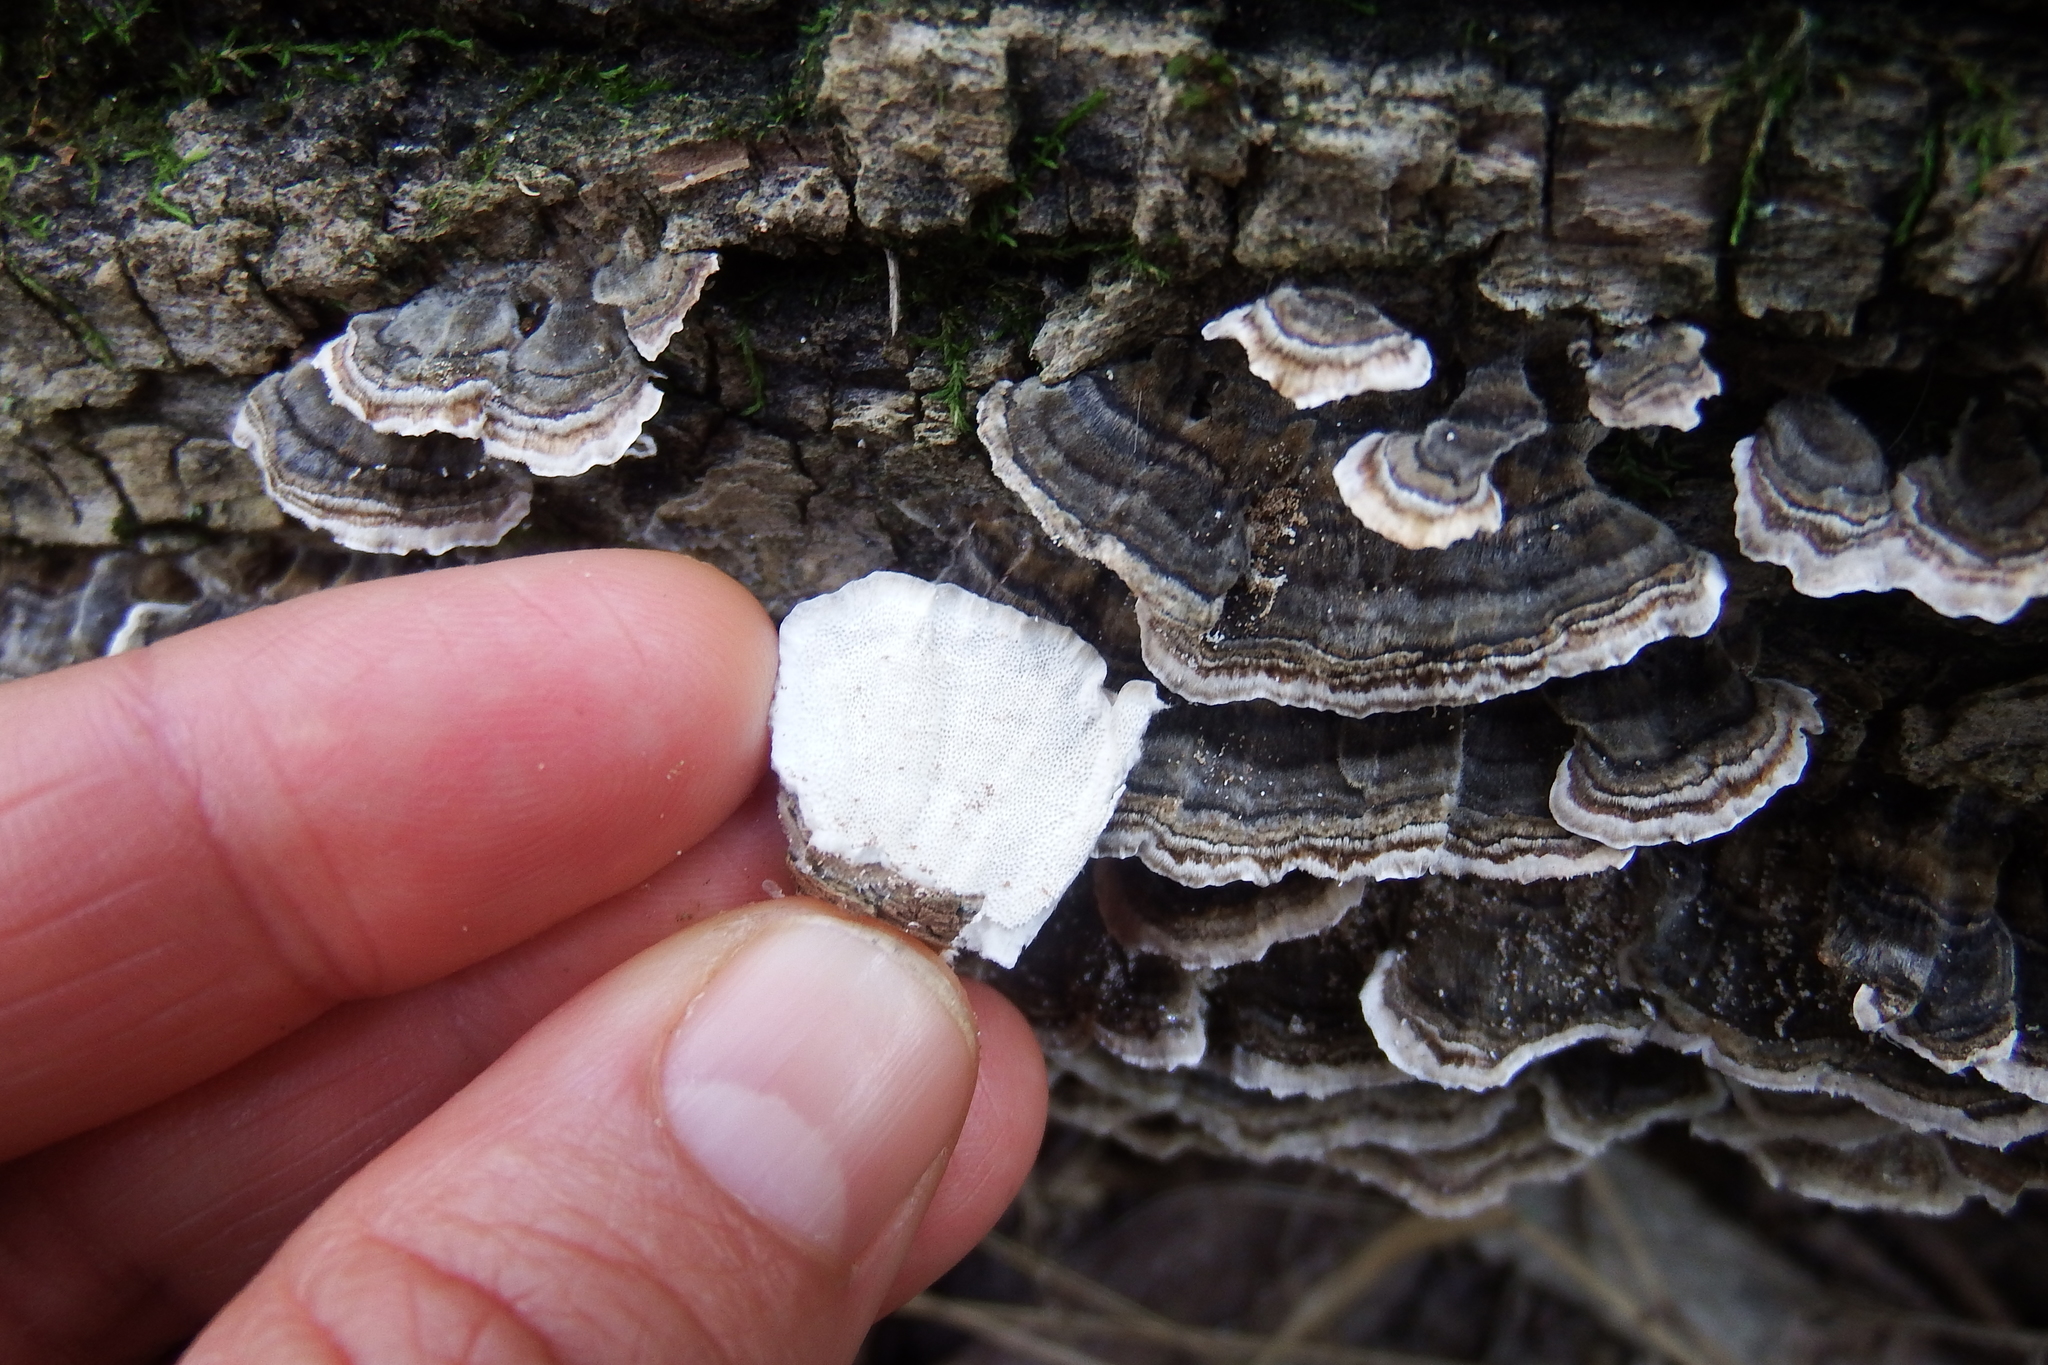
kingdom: Fungi
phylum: Basidiomycota
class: Agaricomycetes
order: Polyporales
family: Polyporaceae
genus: Trametes
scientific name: Trametes versicolor
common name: Turkeytail
